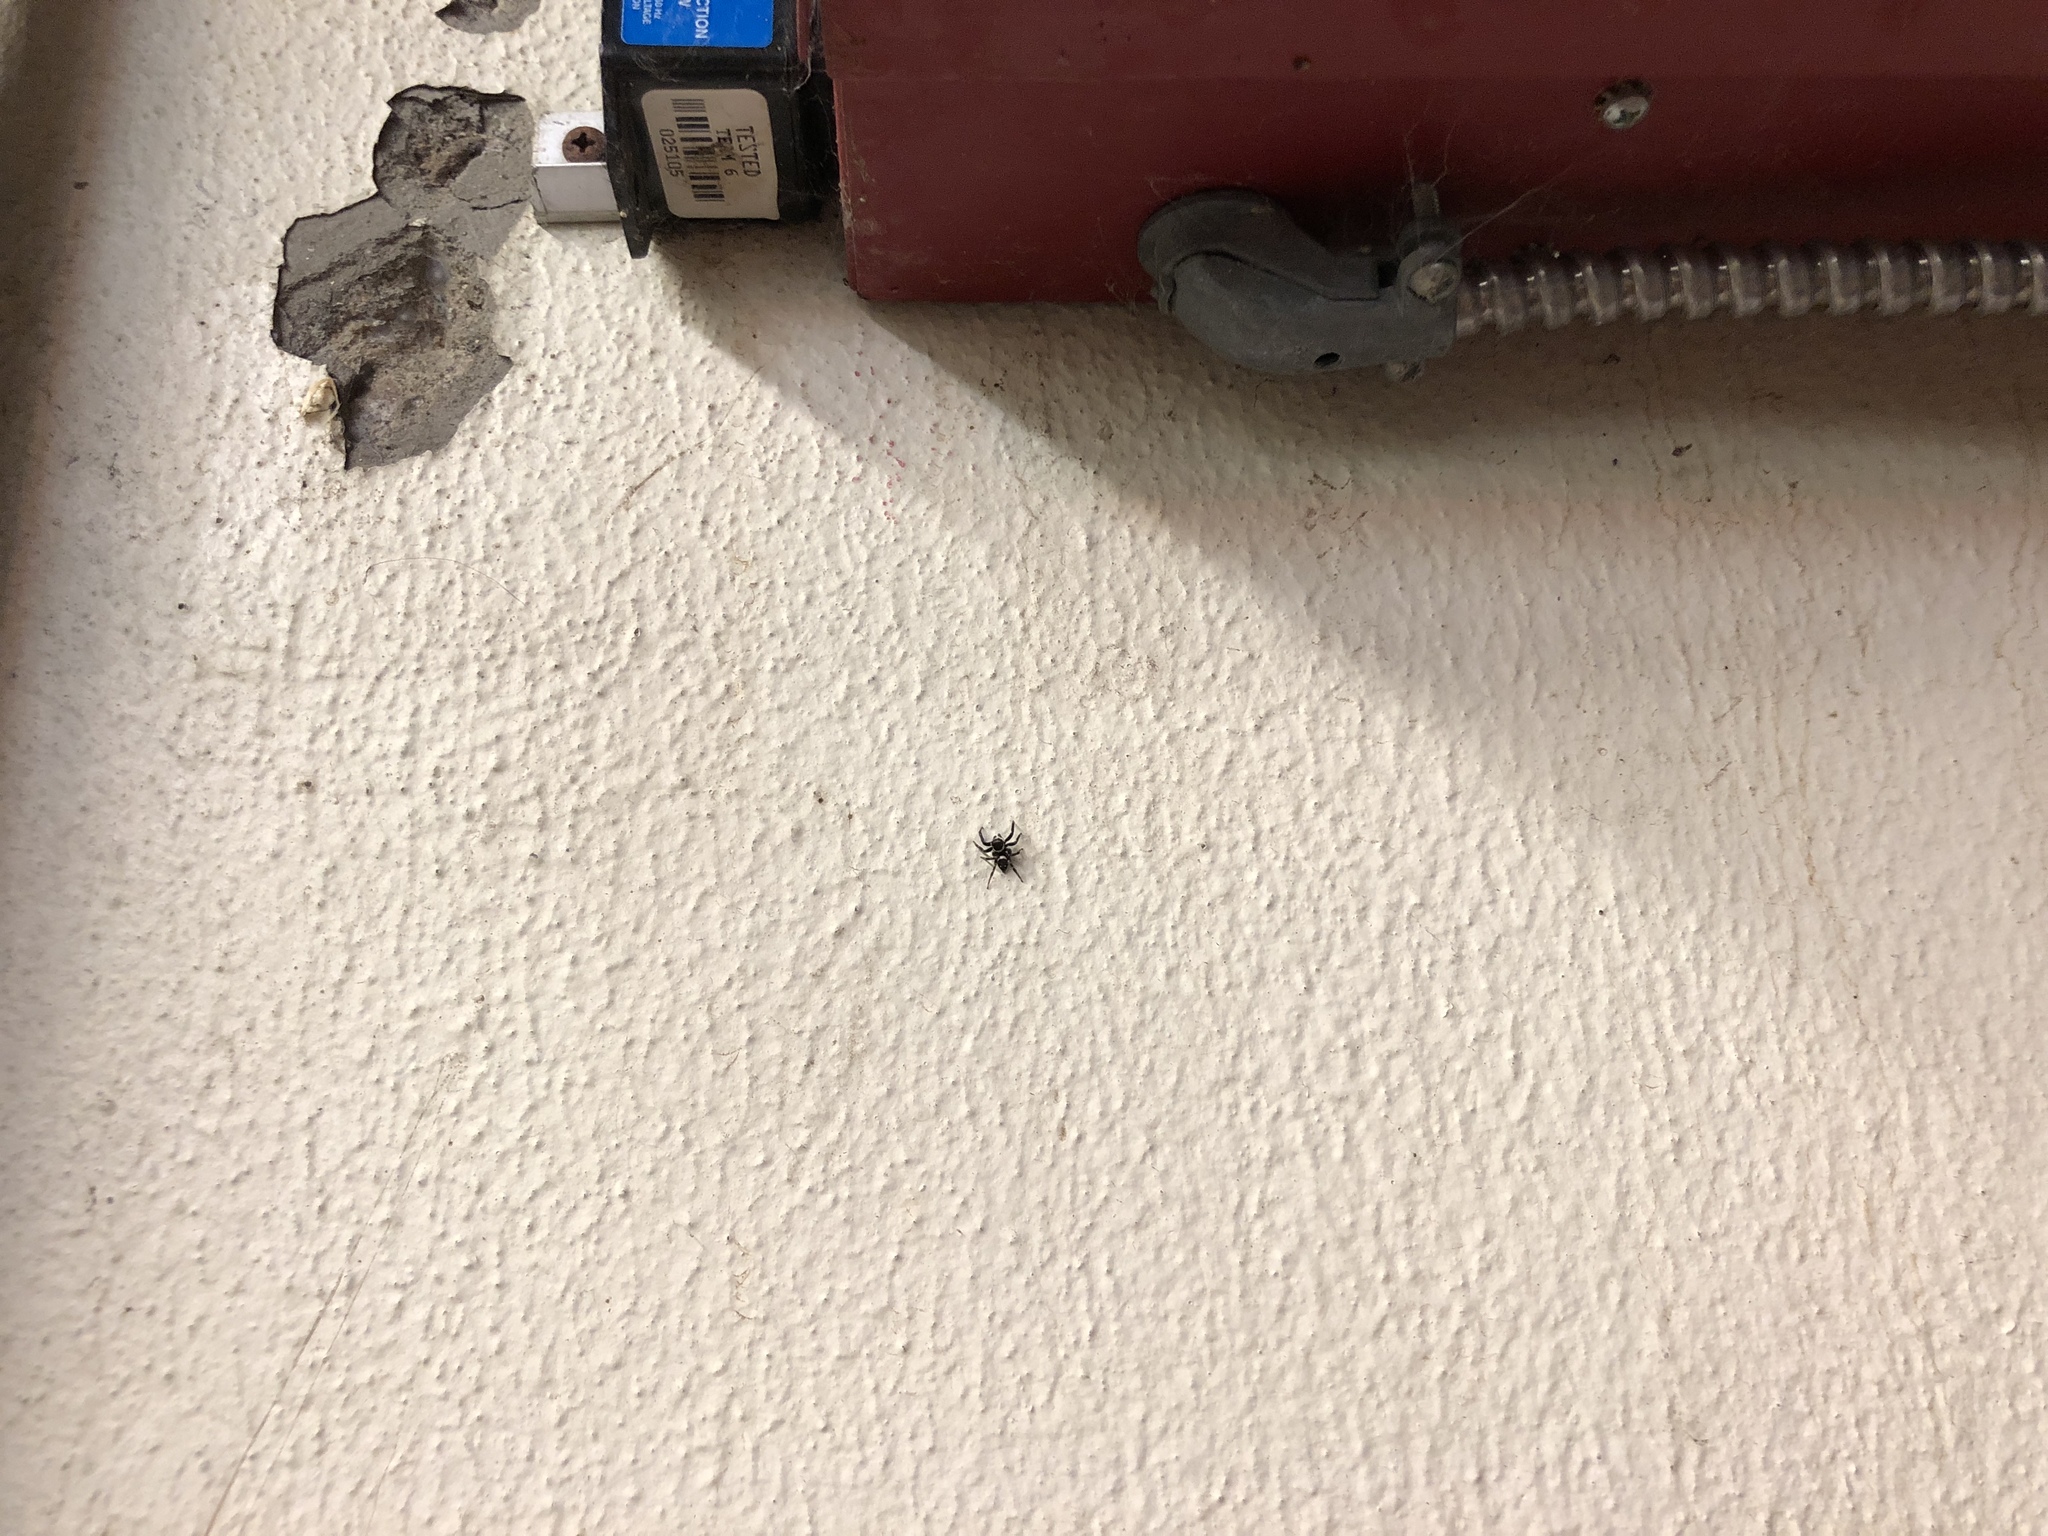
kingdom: Animalia
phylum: Arthropoda
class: Arachnida
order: Araneae
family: Salticidae
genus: Hasarius
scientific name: Hasarius adansoni
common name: Jumping spider
